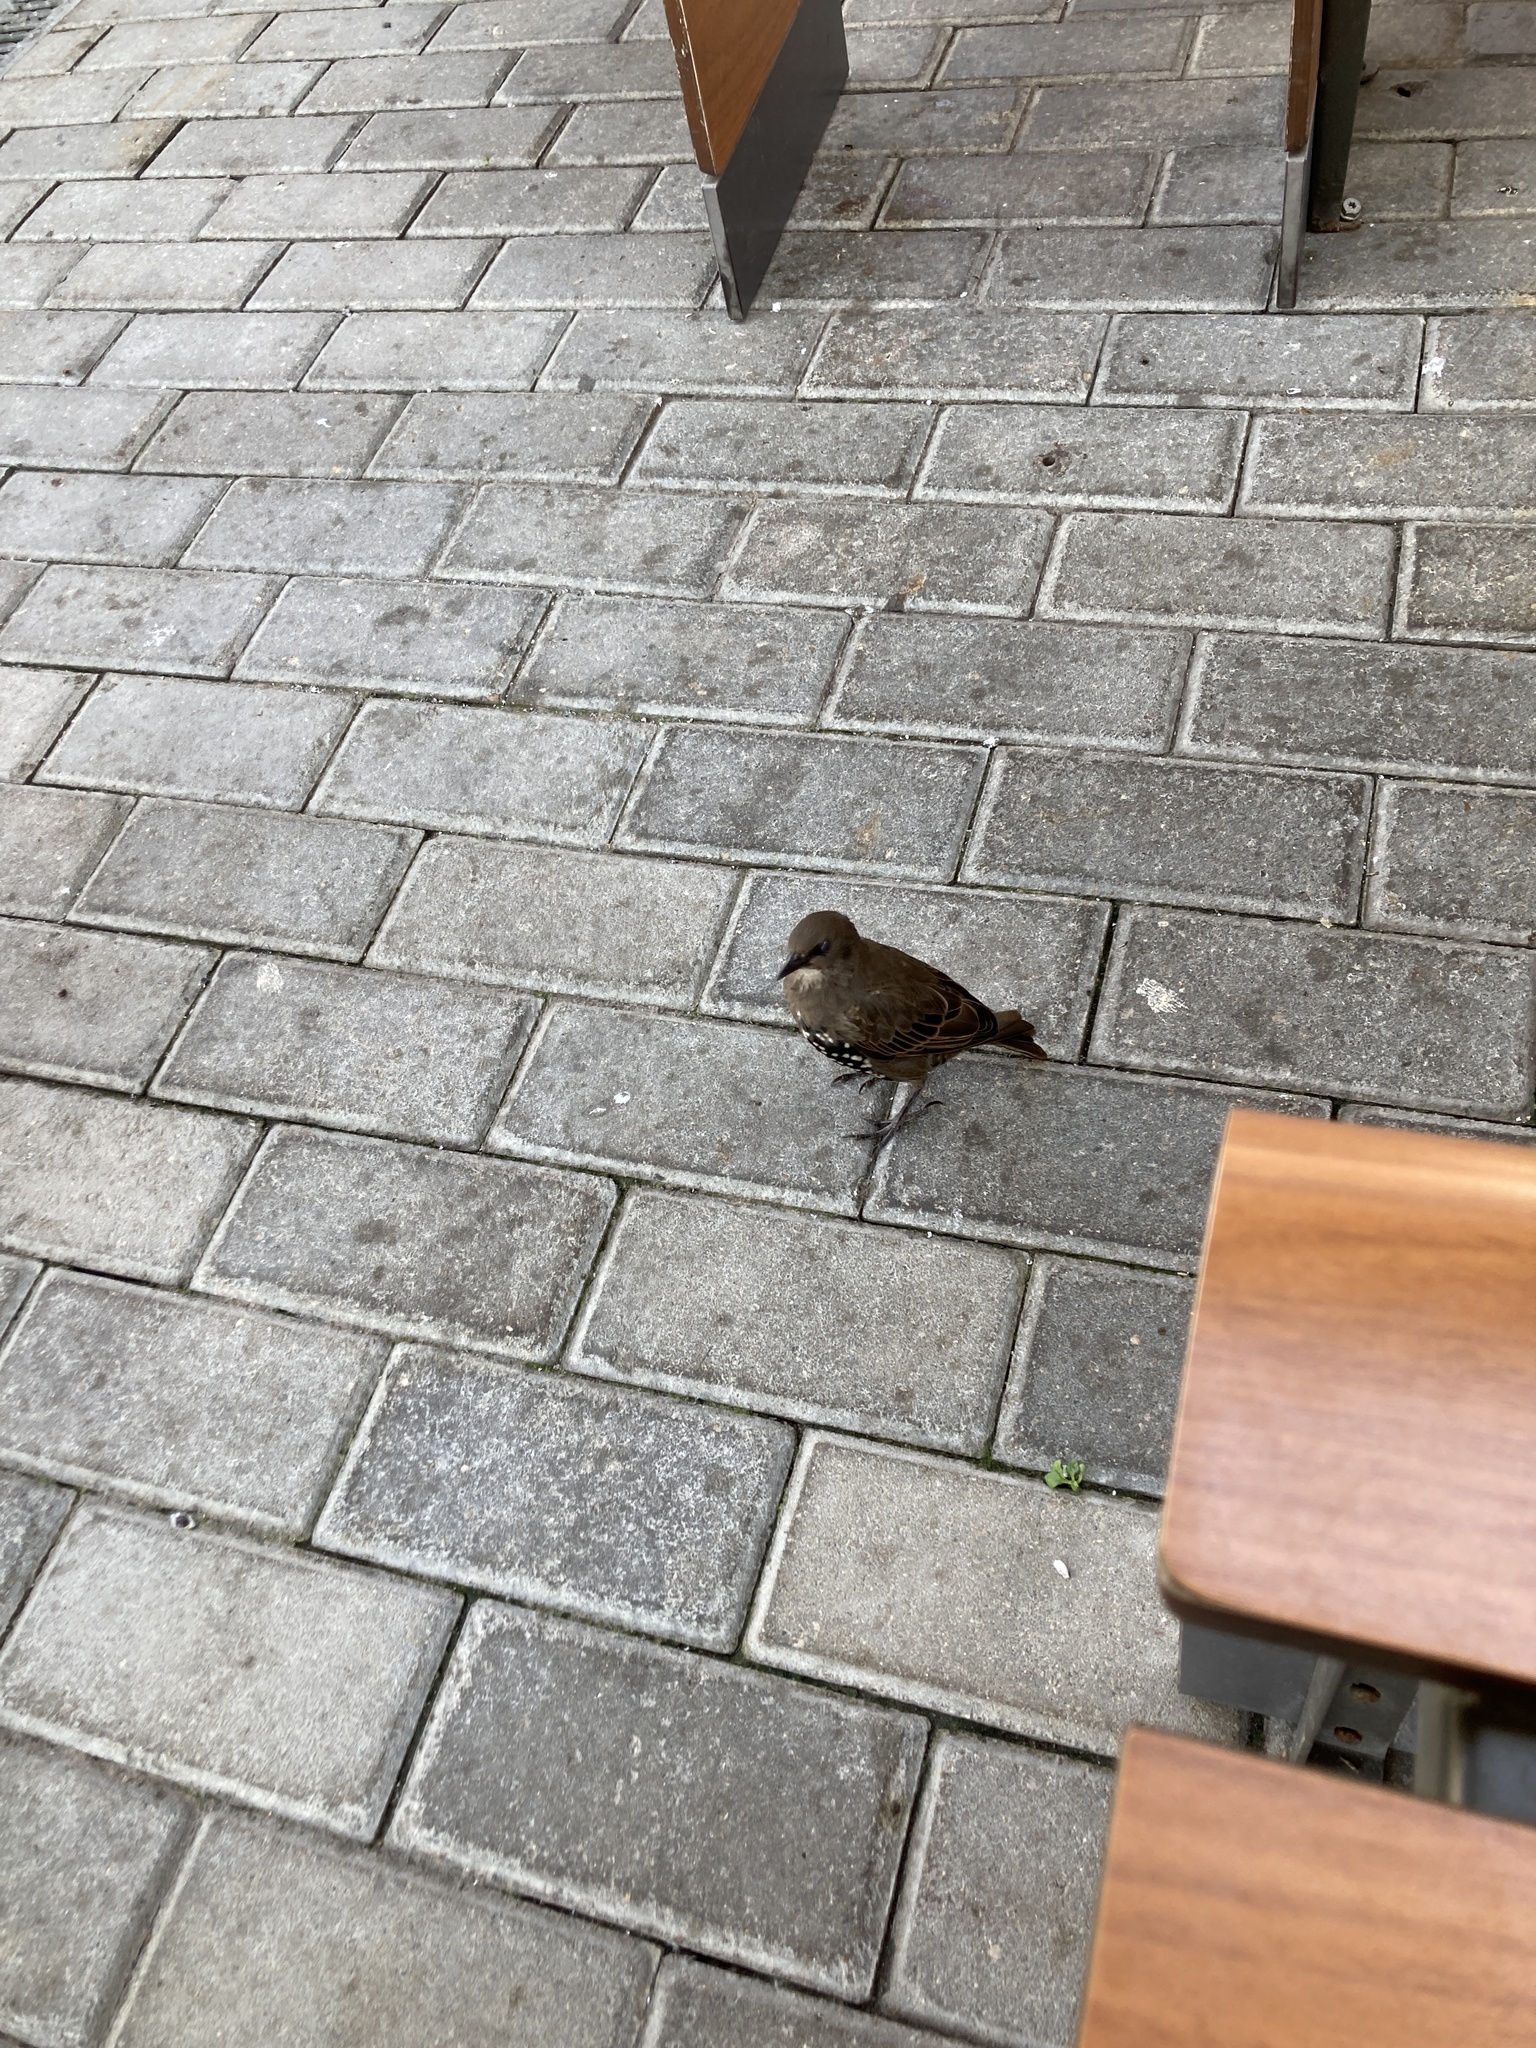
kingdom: Animalia
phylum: Chordata
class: Aves
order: Passeriformes
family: Sturnidae
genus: Sturnus
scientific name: Sturnus vulgaris
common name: Common starling
